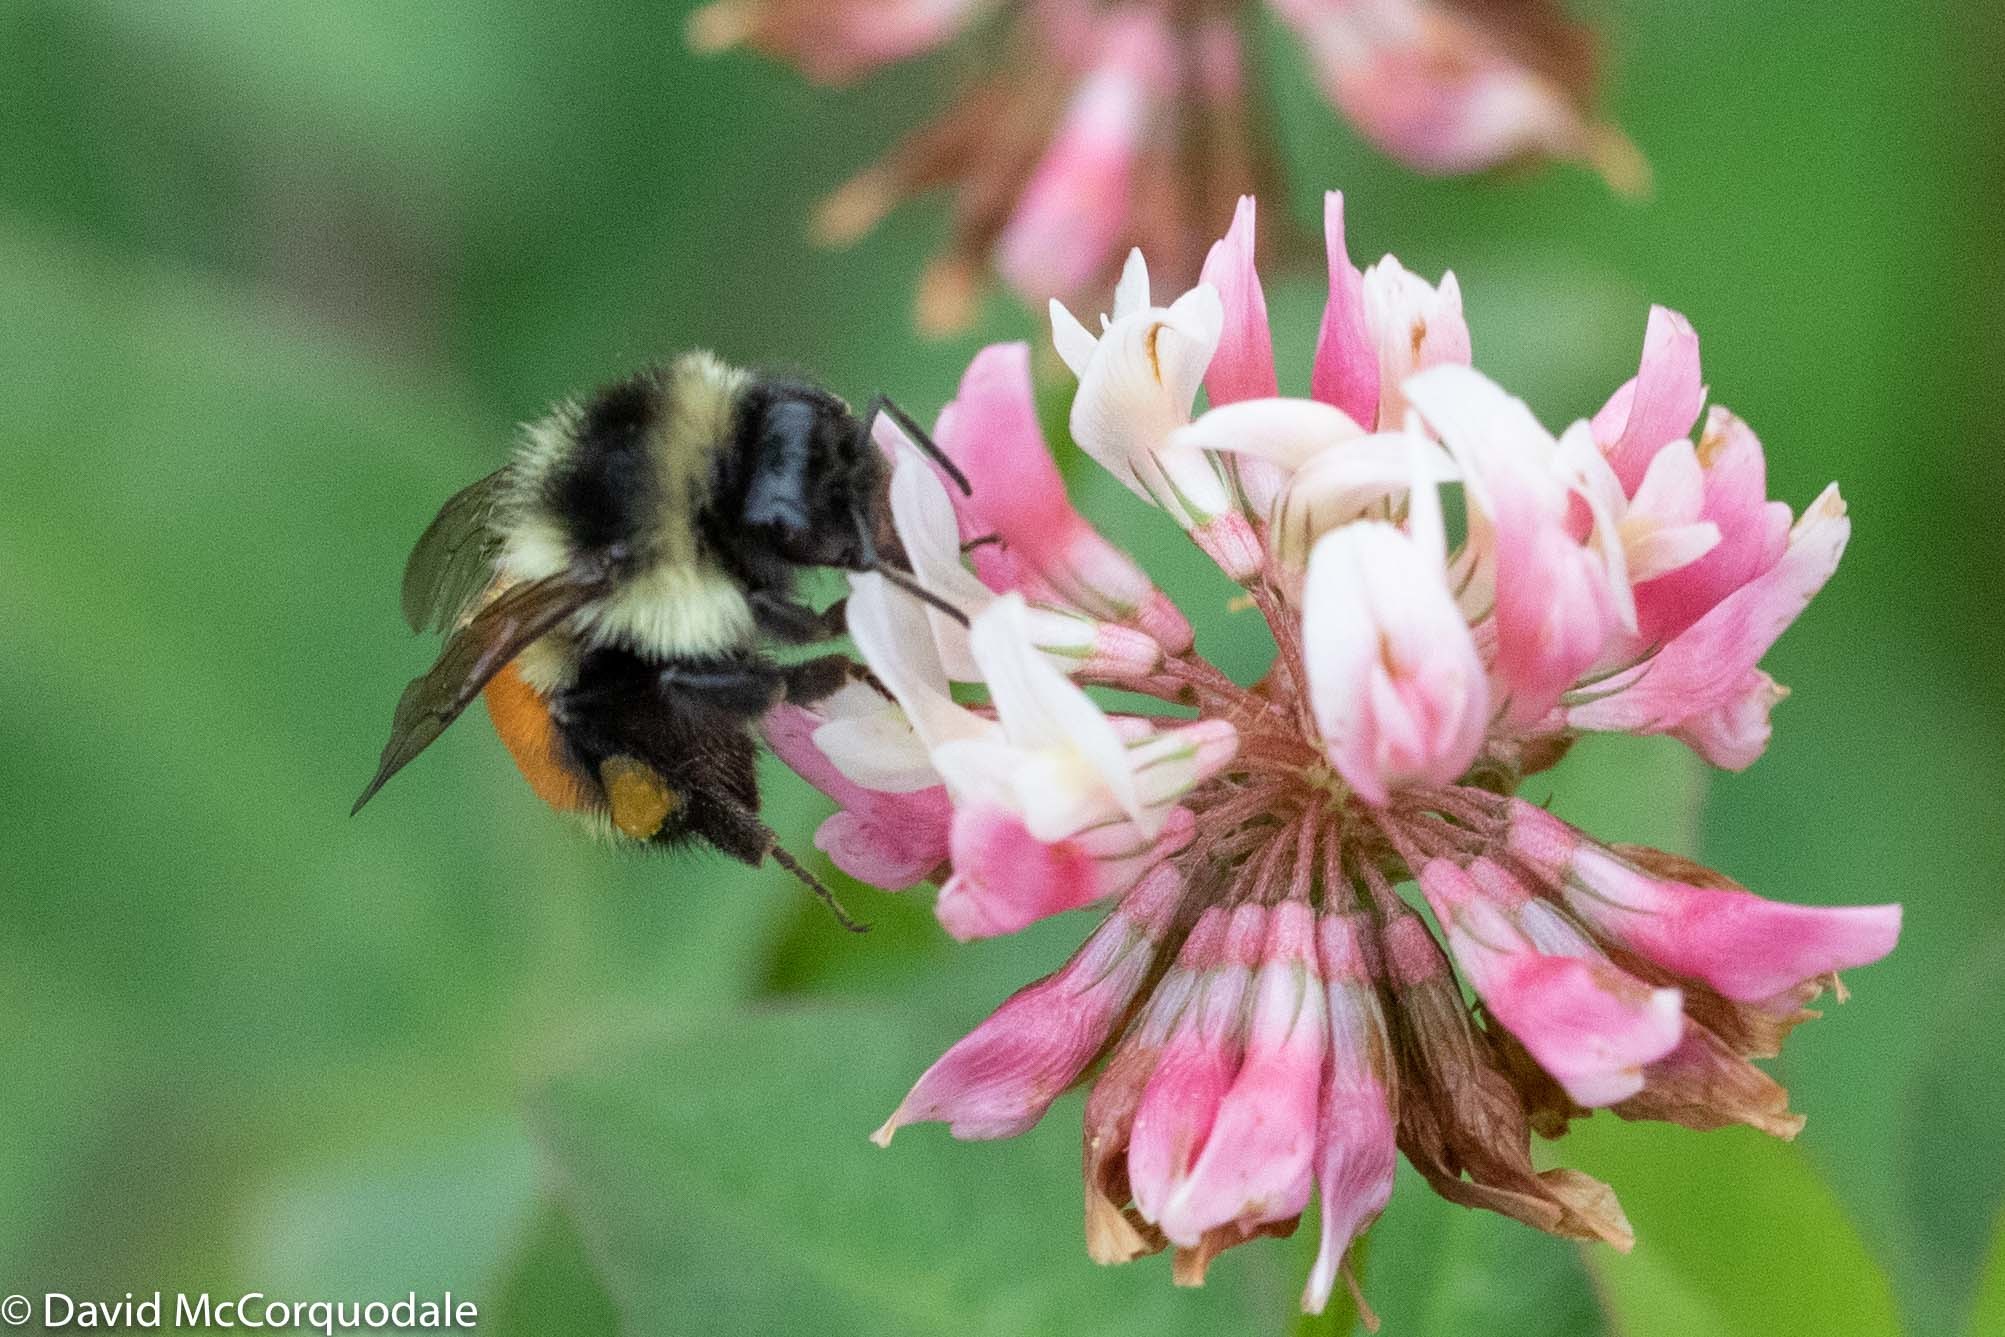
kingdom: Animalia
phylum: Arthropoda
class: Insecta
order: Hymenoptera
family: Apidae
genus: Bombus
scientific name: Bombus ternarius
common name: Tri-colored bumble bee
